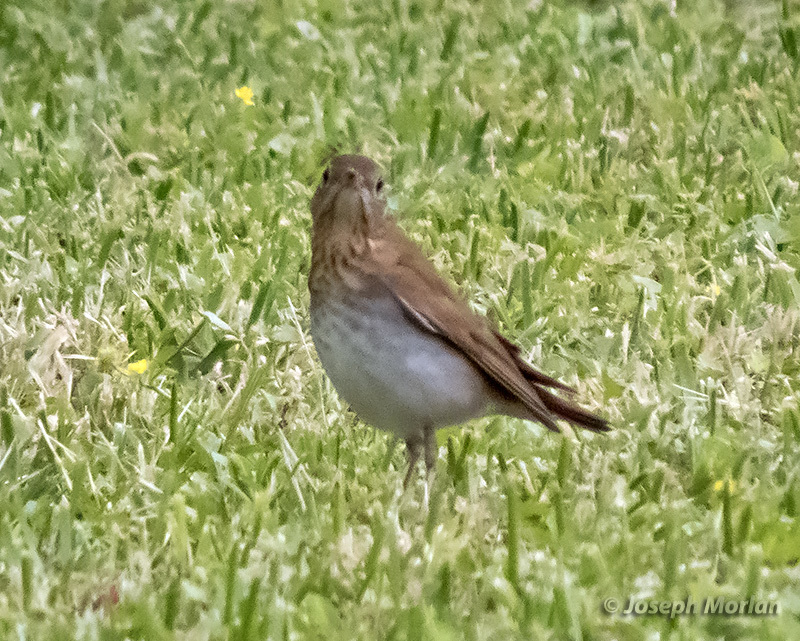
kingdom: Animalia
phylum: Chordata
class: Aves
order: Passeriformes
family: Turdidae
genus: Catharus
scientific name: Catharus fuscescens
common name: Veery
